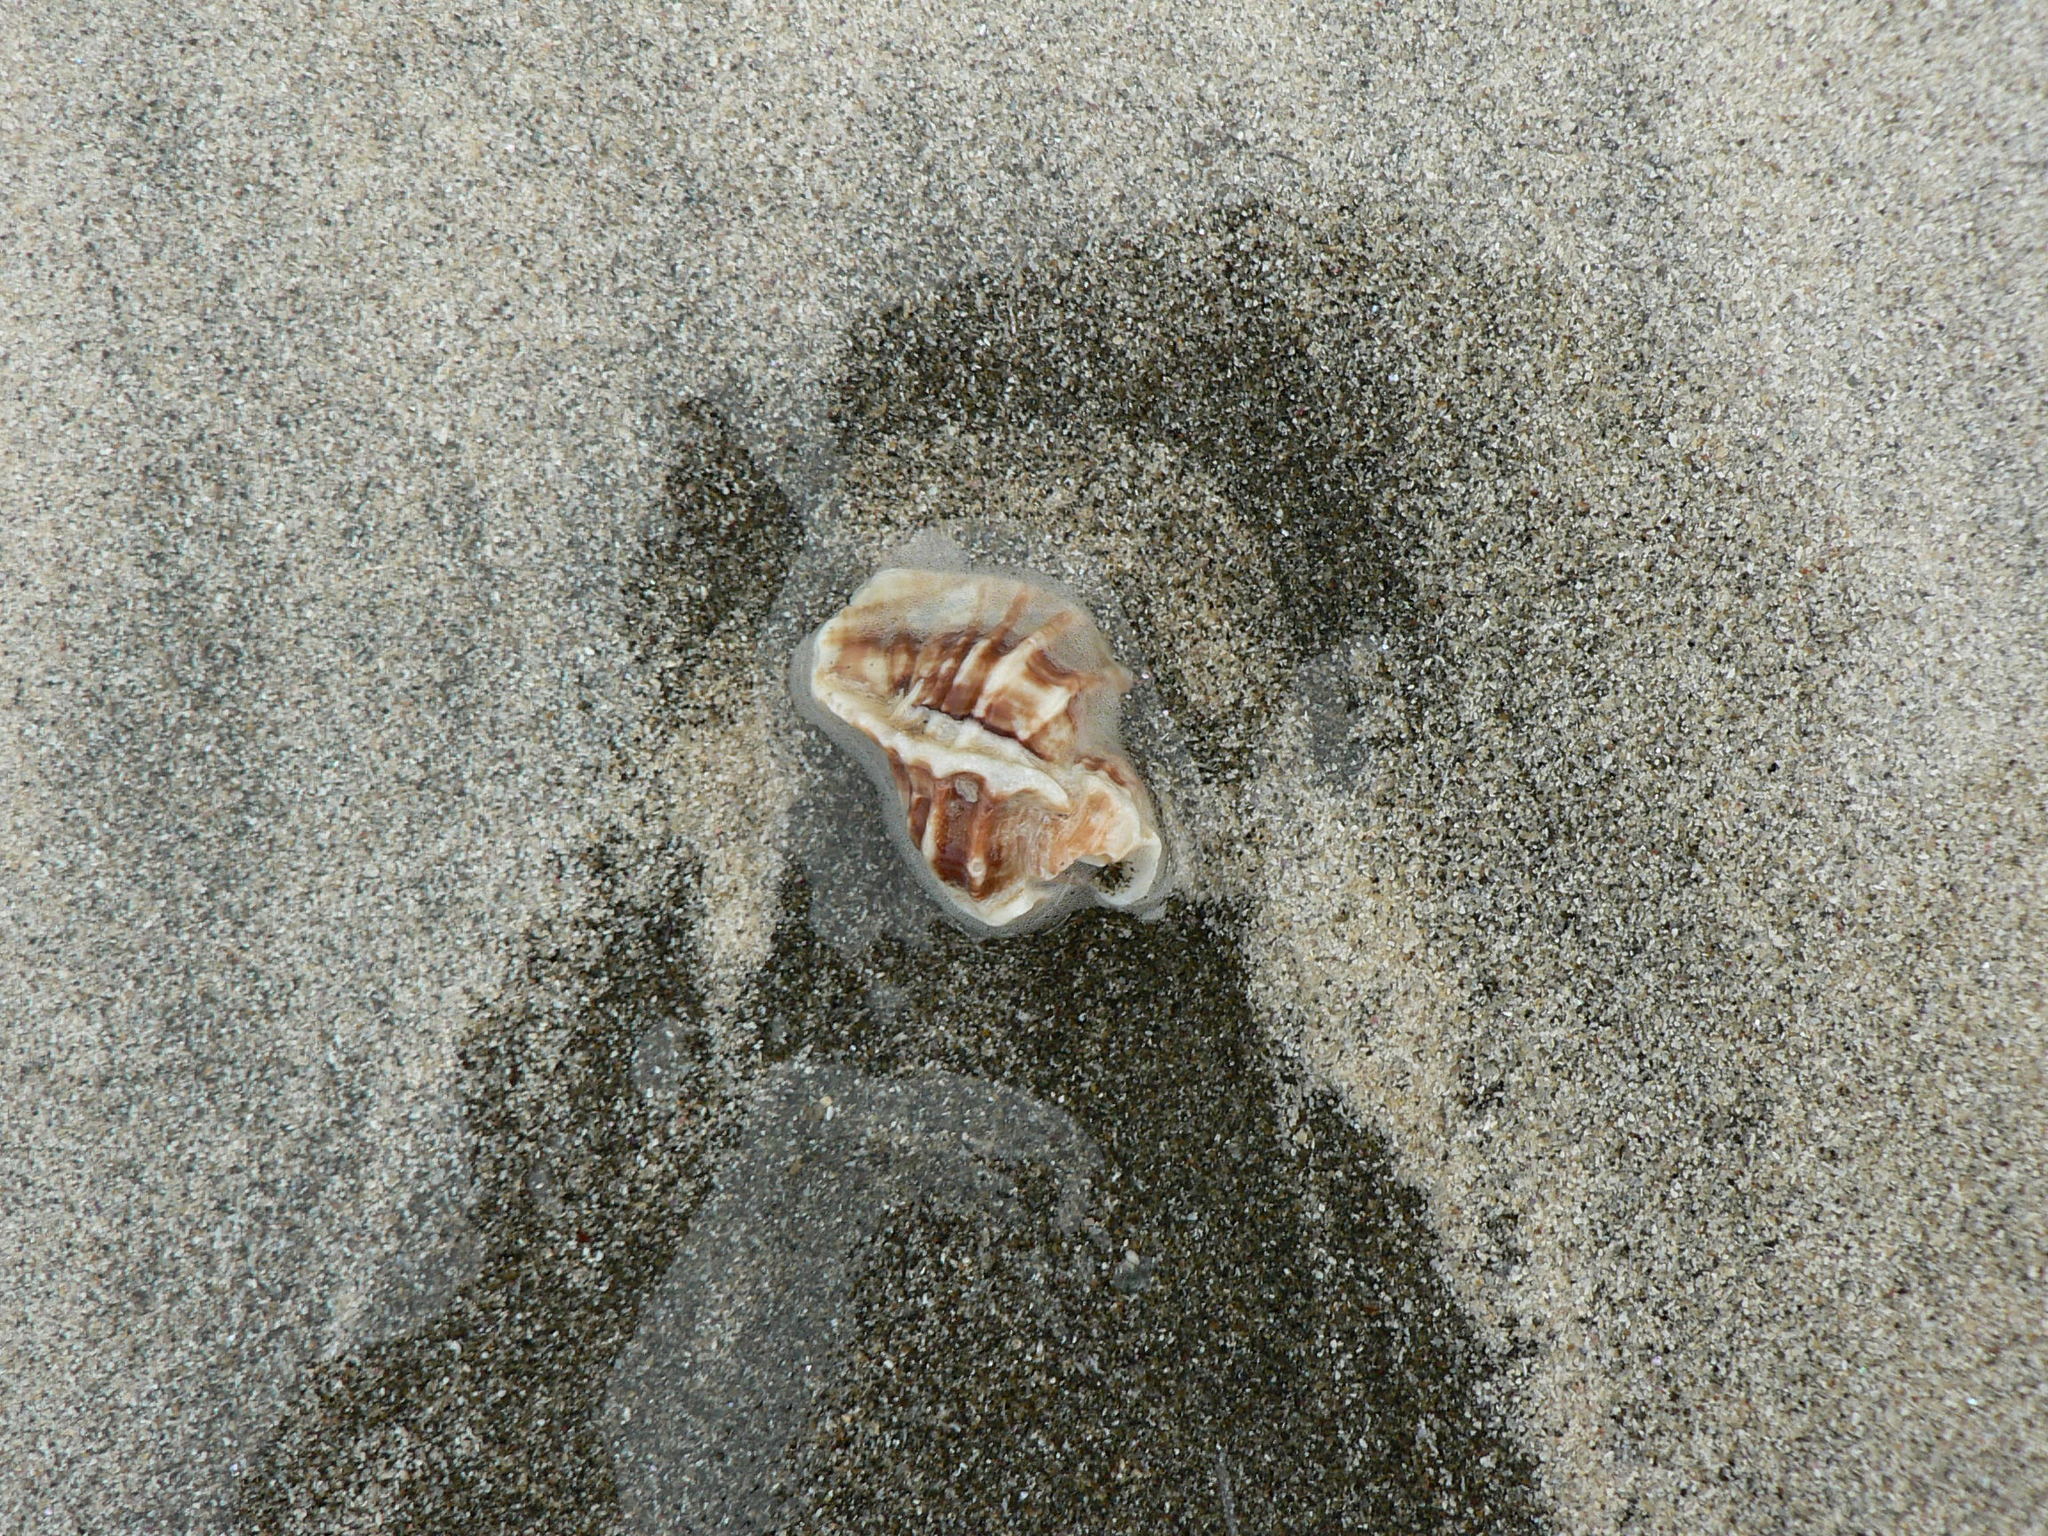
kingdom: Animalia
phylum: Mollusca
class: Gastropoda
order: Neogastropoda
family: Muricidae
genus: Ceratostoma
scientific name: Ceratostoma foliatum
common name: Foliate thorn purpura
